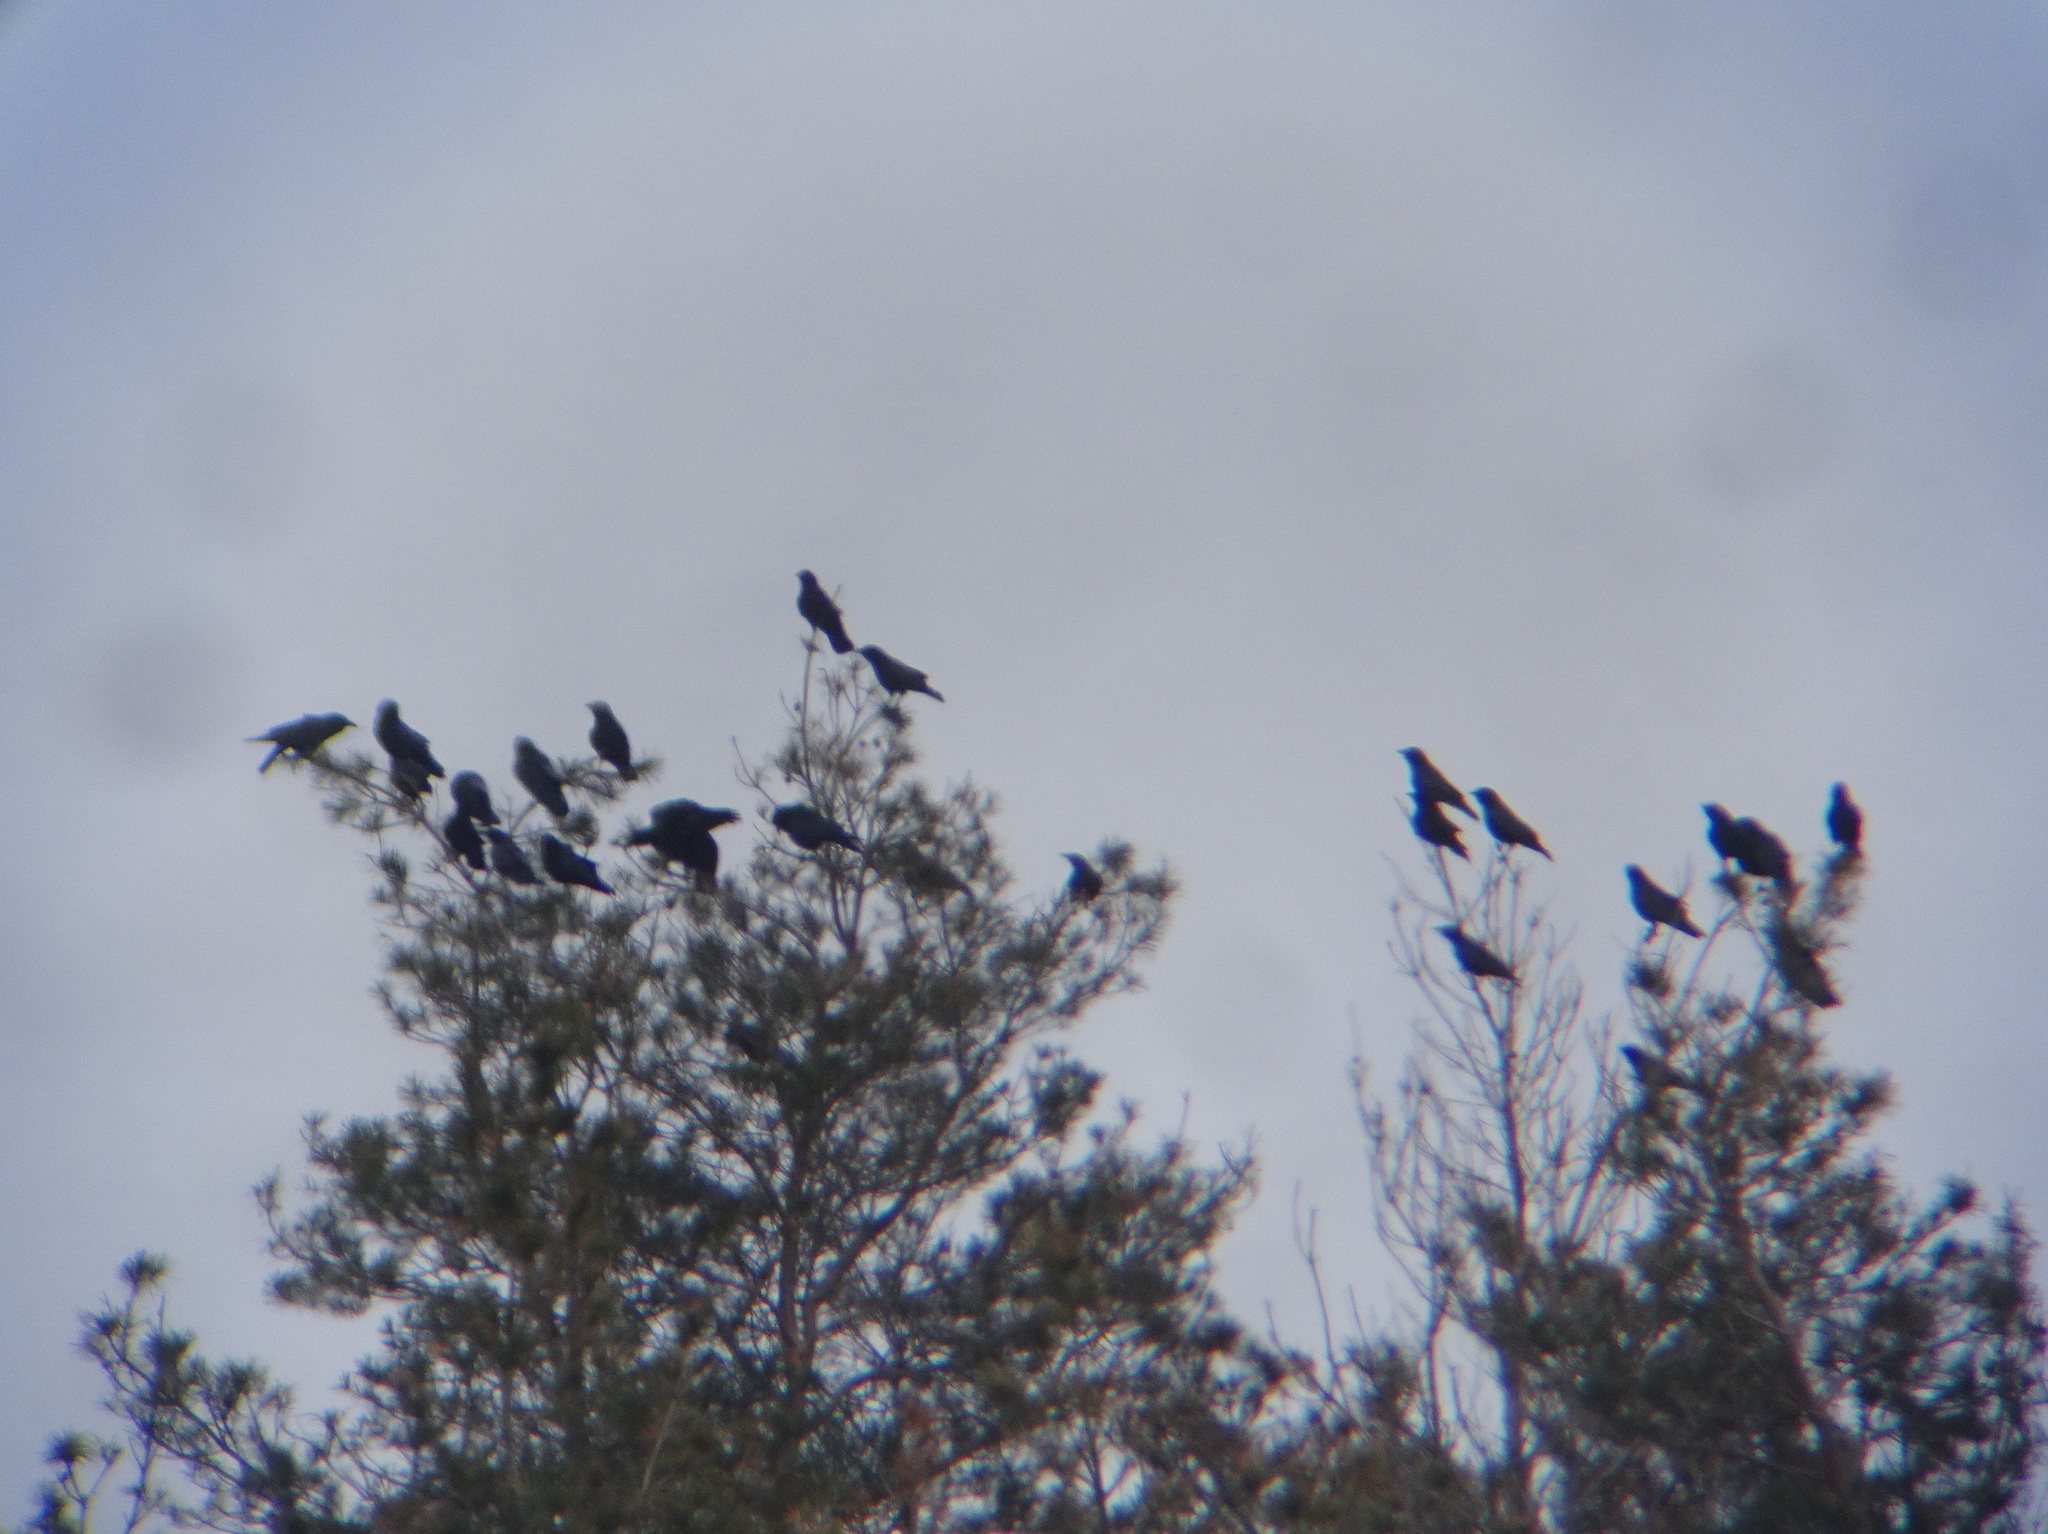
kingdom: Animalia
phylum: Chordata
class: Aves
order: Passeriformes
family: Corvidae
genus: Corvus
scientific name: Corvus brachyrhynchos
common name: American crow
